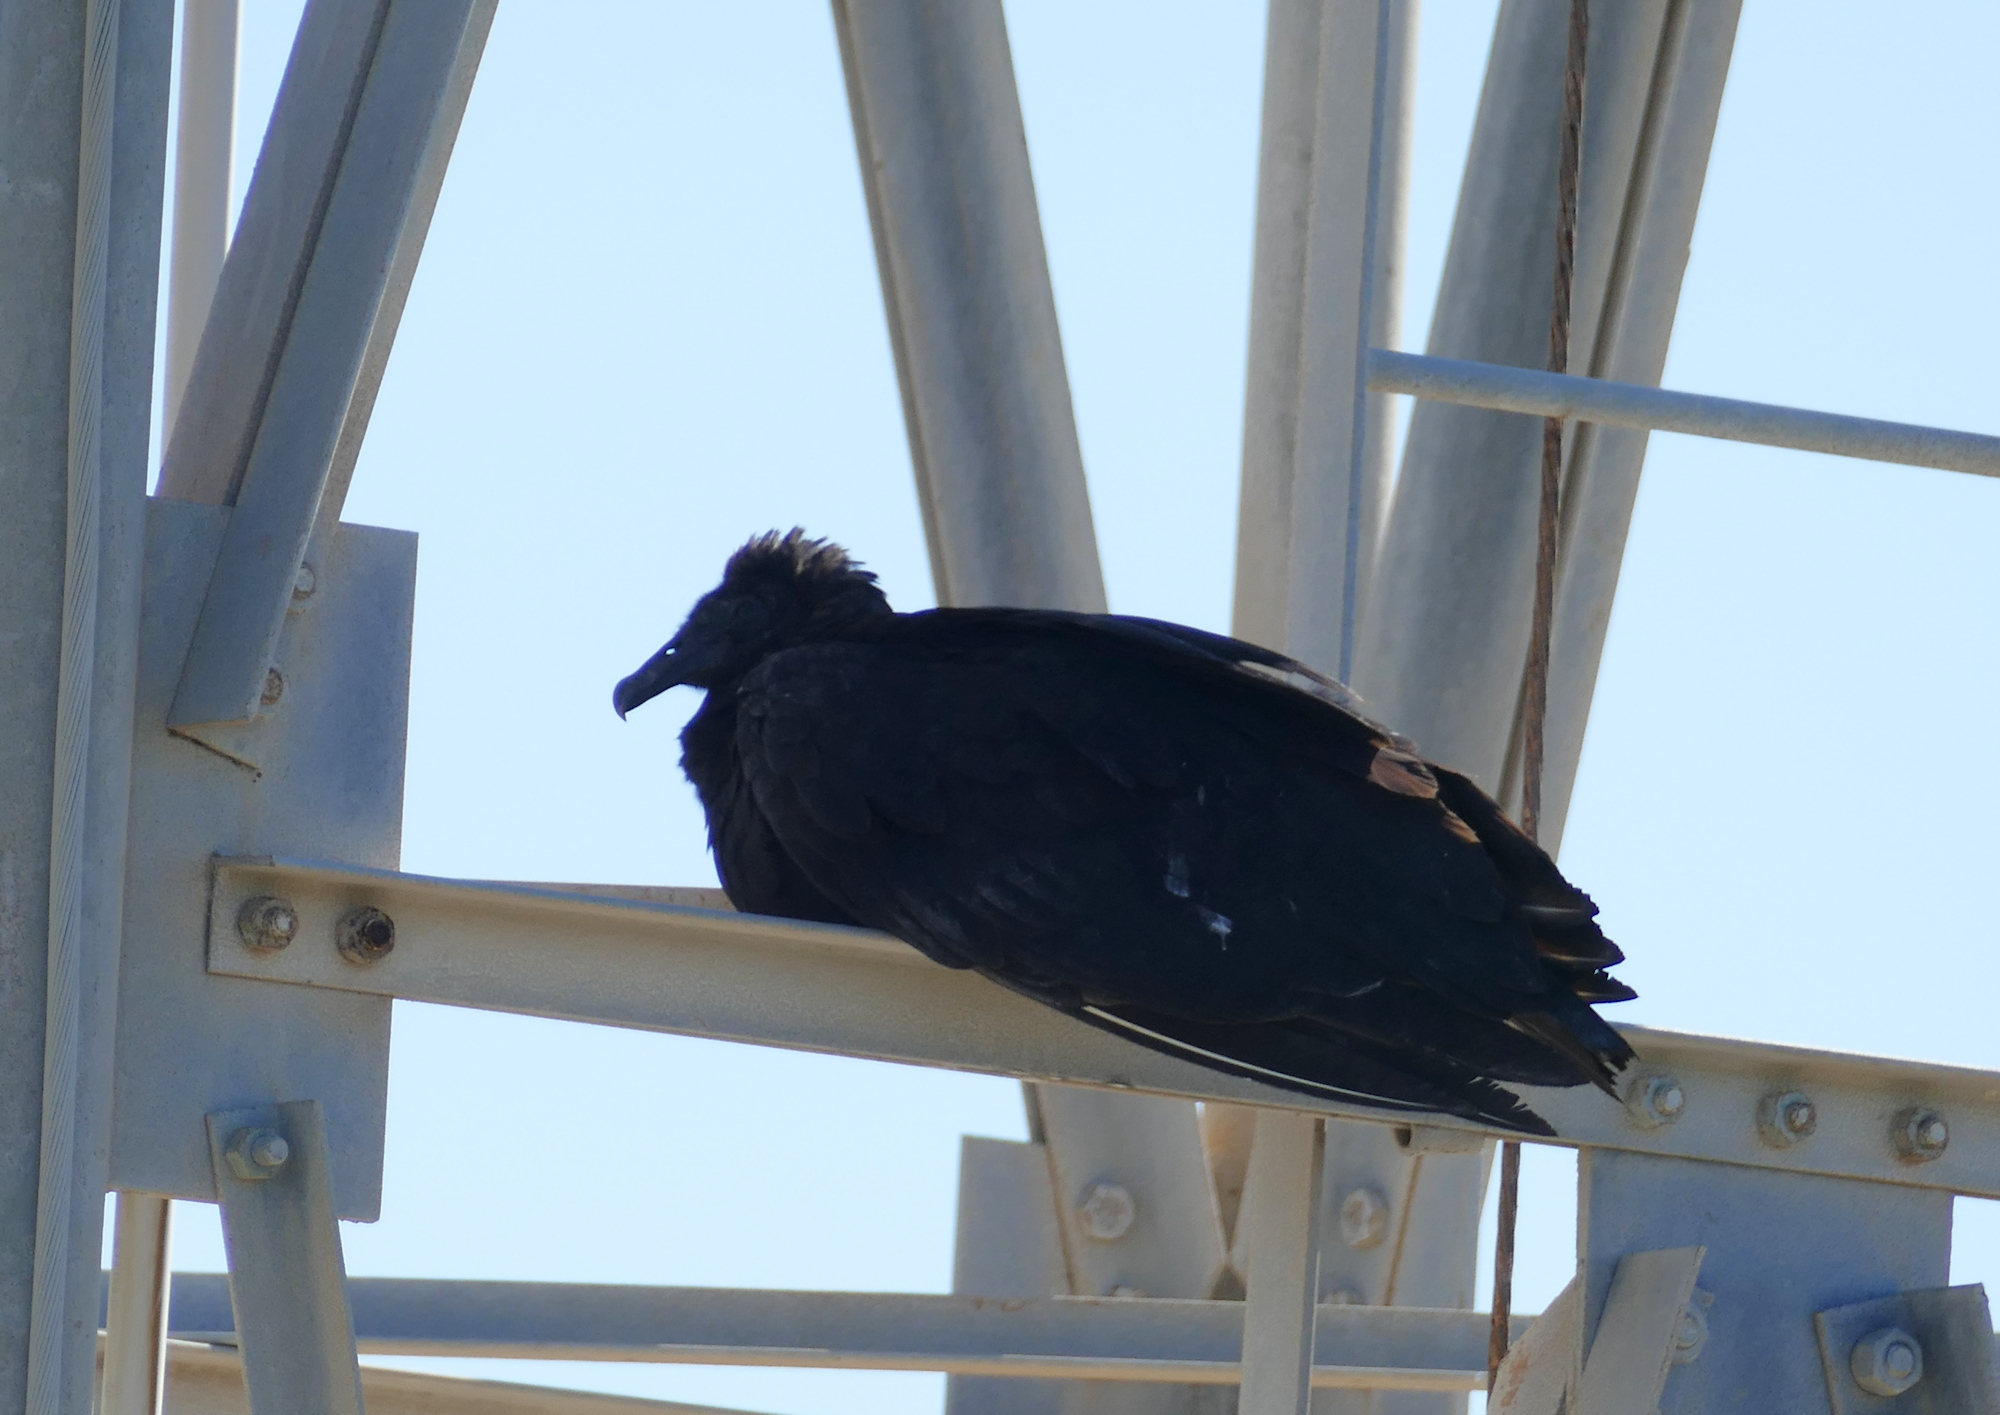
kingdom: Animalia
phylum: Chordata
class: Aves
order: Accipitriformes
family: Cathartidae
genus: Coragyps
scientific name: Coragyps atratus
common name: Black vulture
